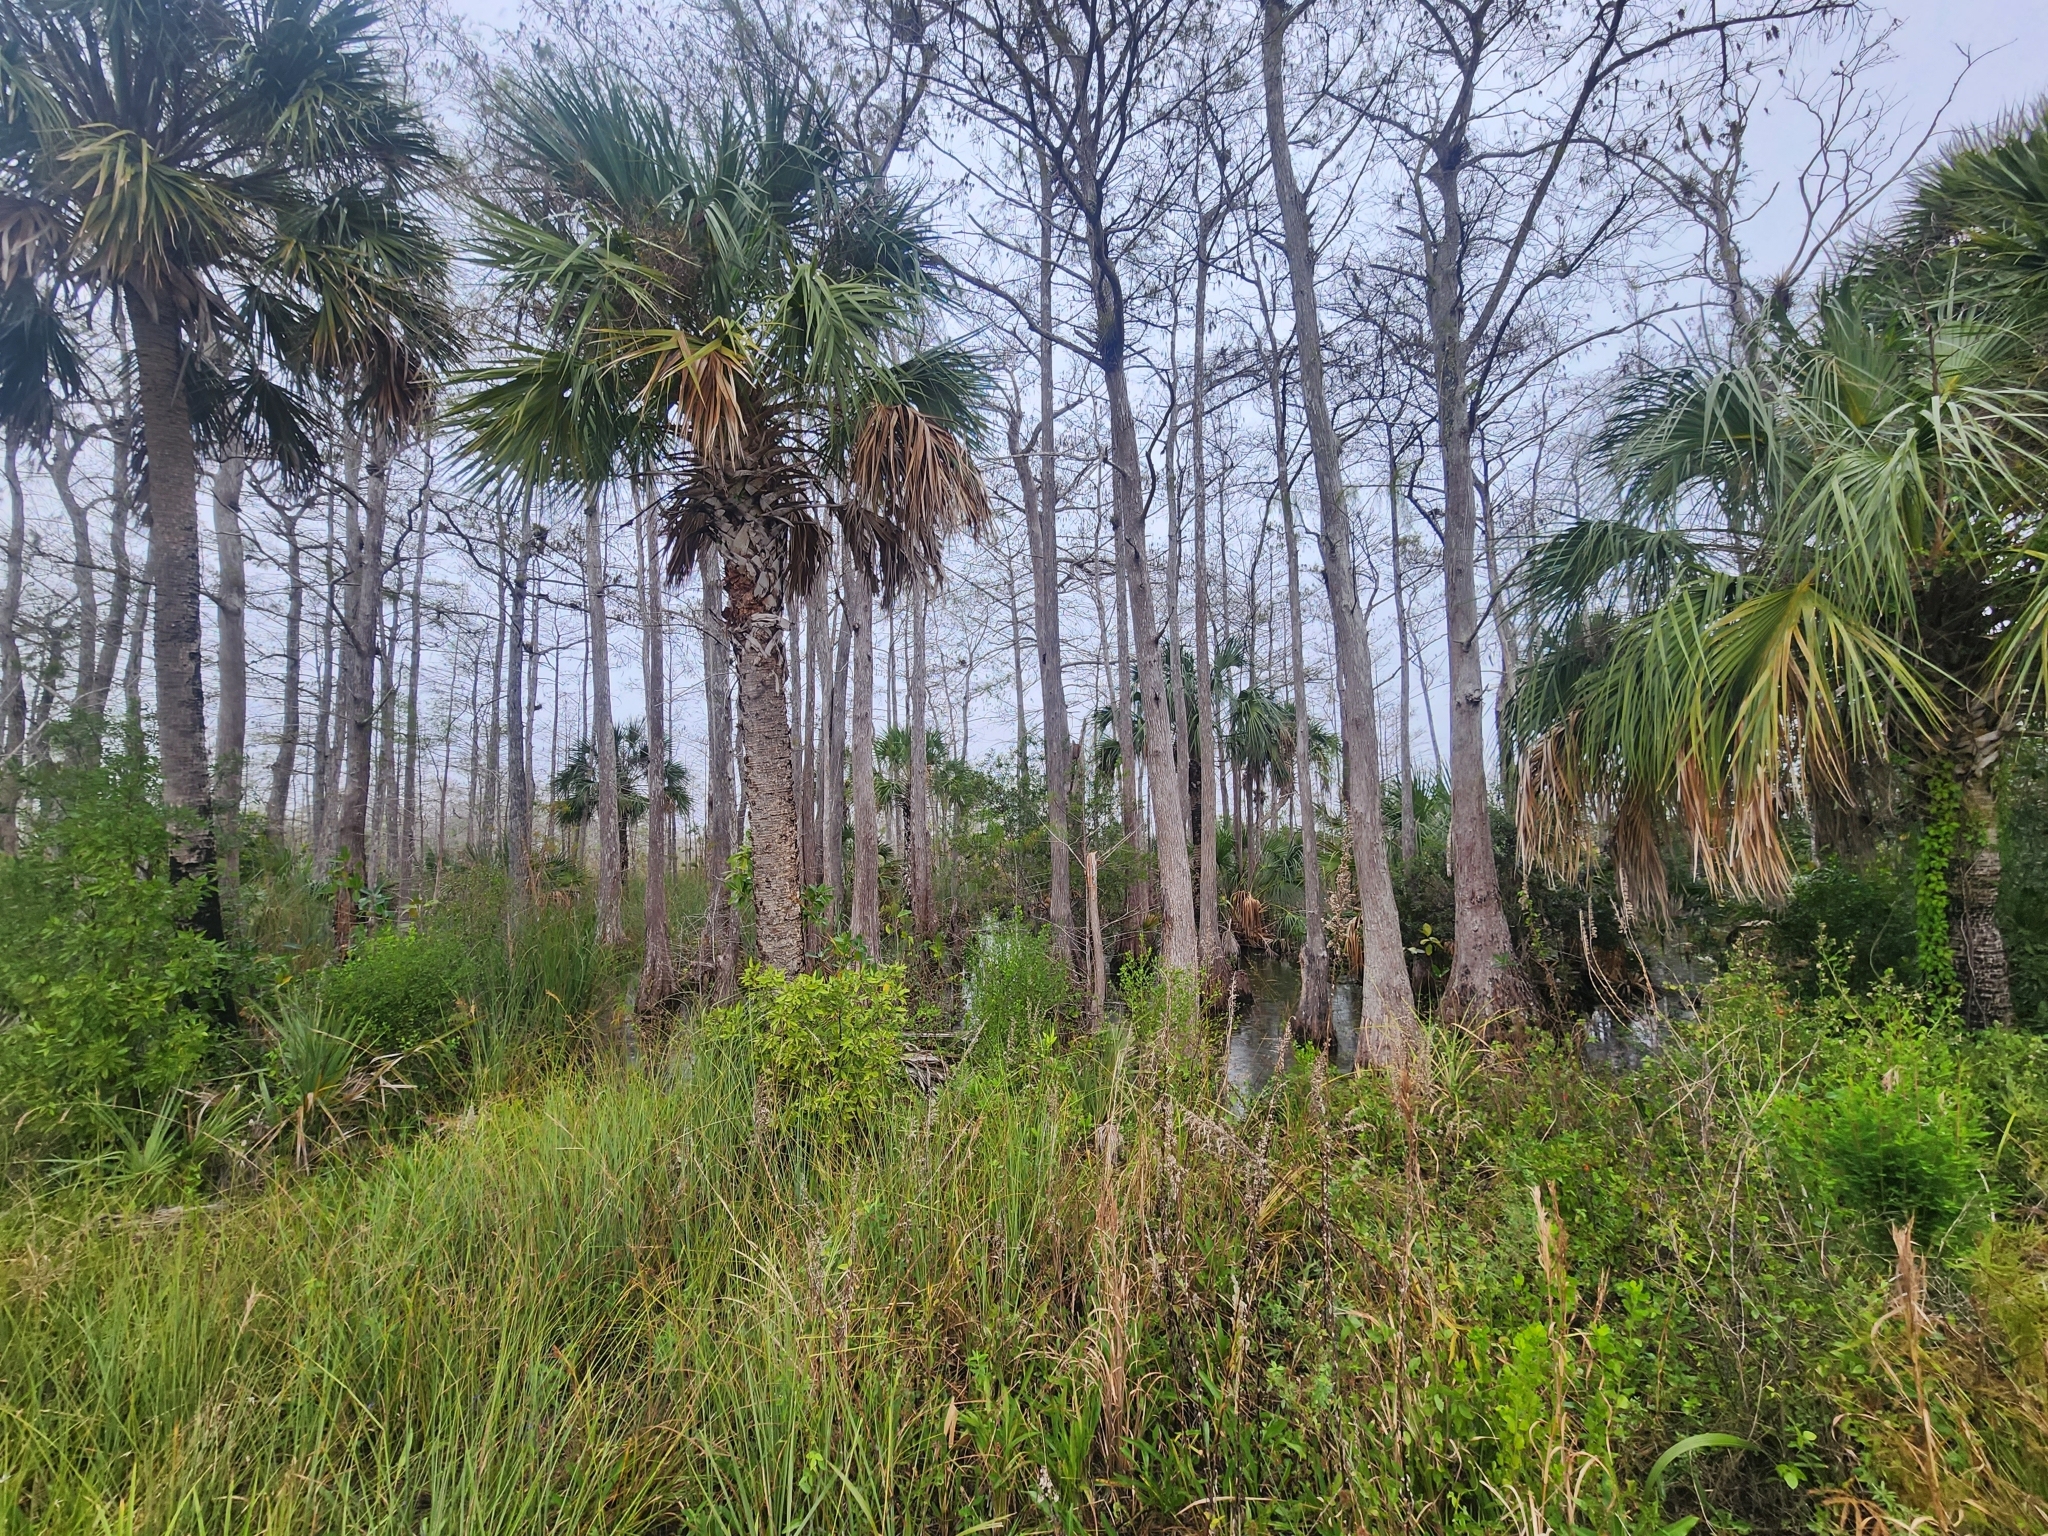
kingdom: Plantae
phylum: Tracheophyta
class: Liliopsida
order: Arecales
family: Arecaceae
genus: Sabal
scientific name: Sabal palmetto
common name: Blue palmetto
